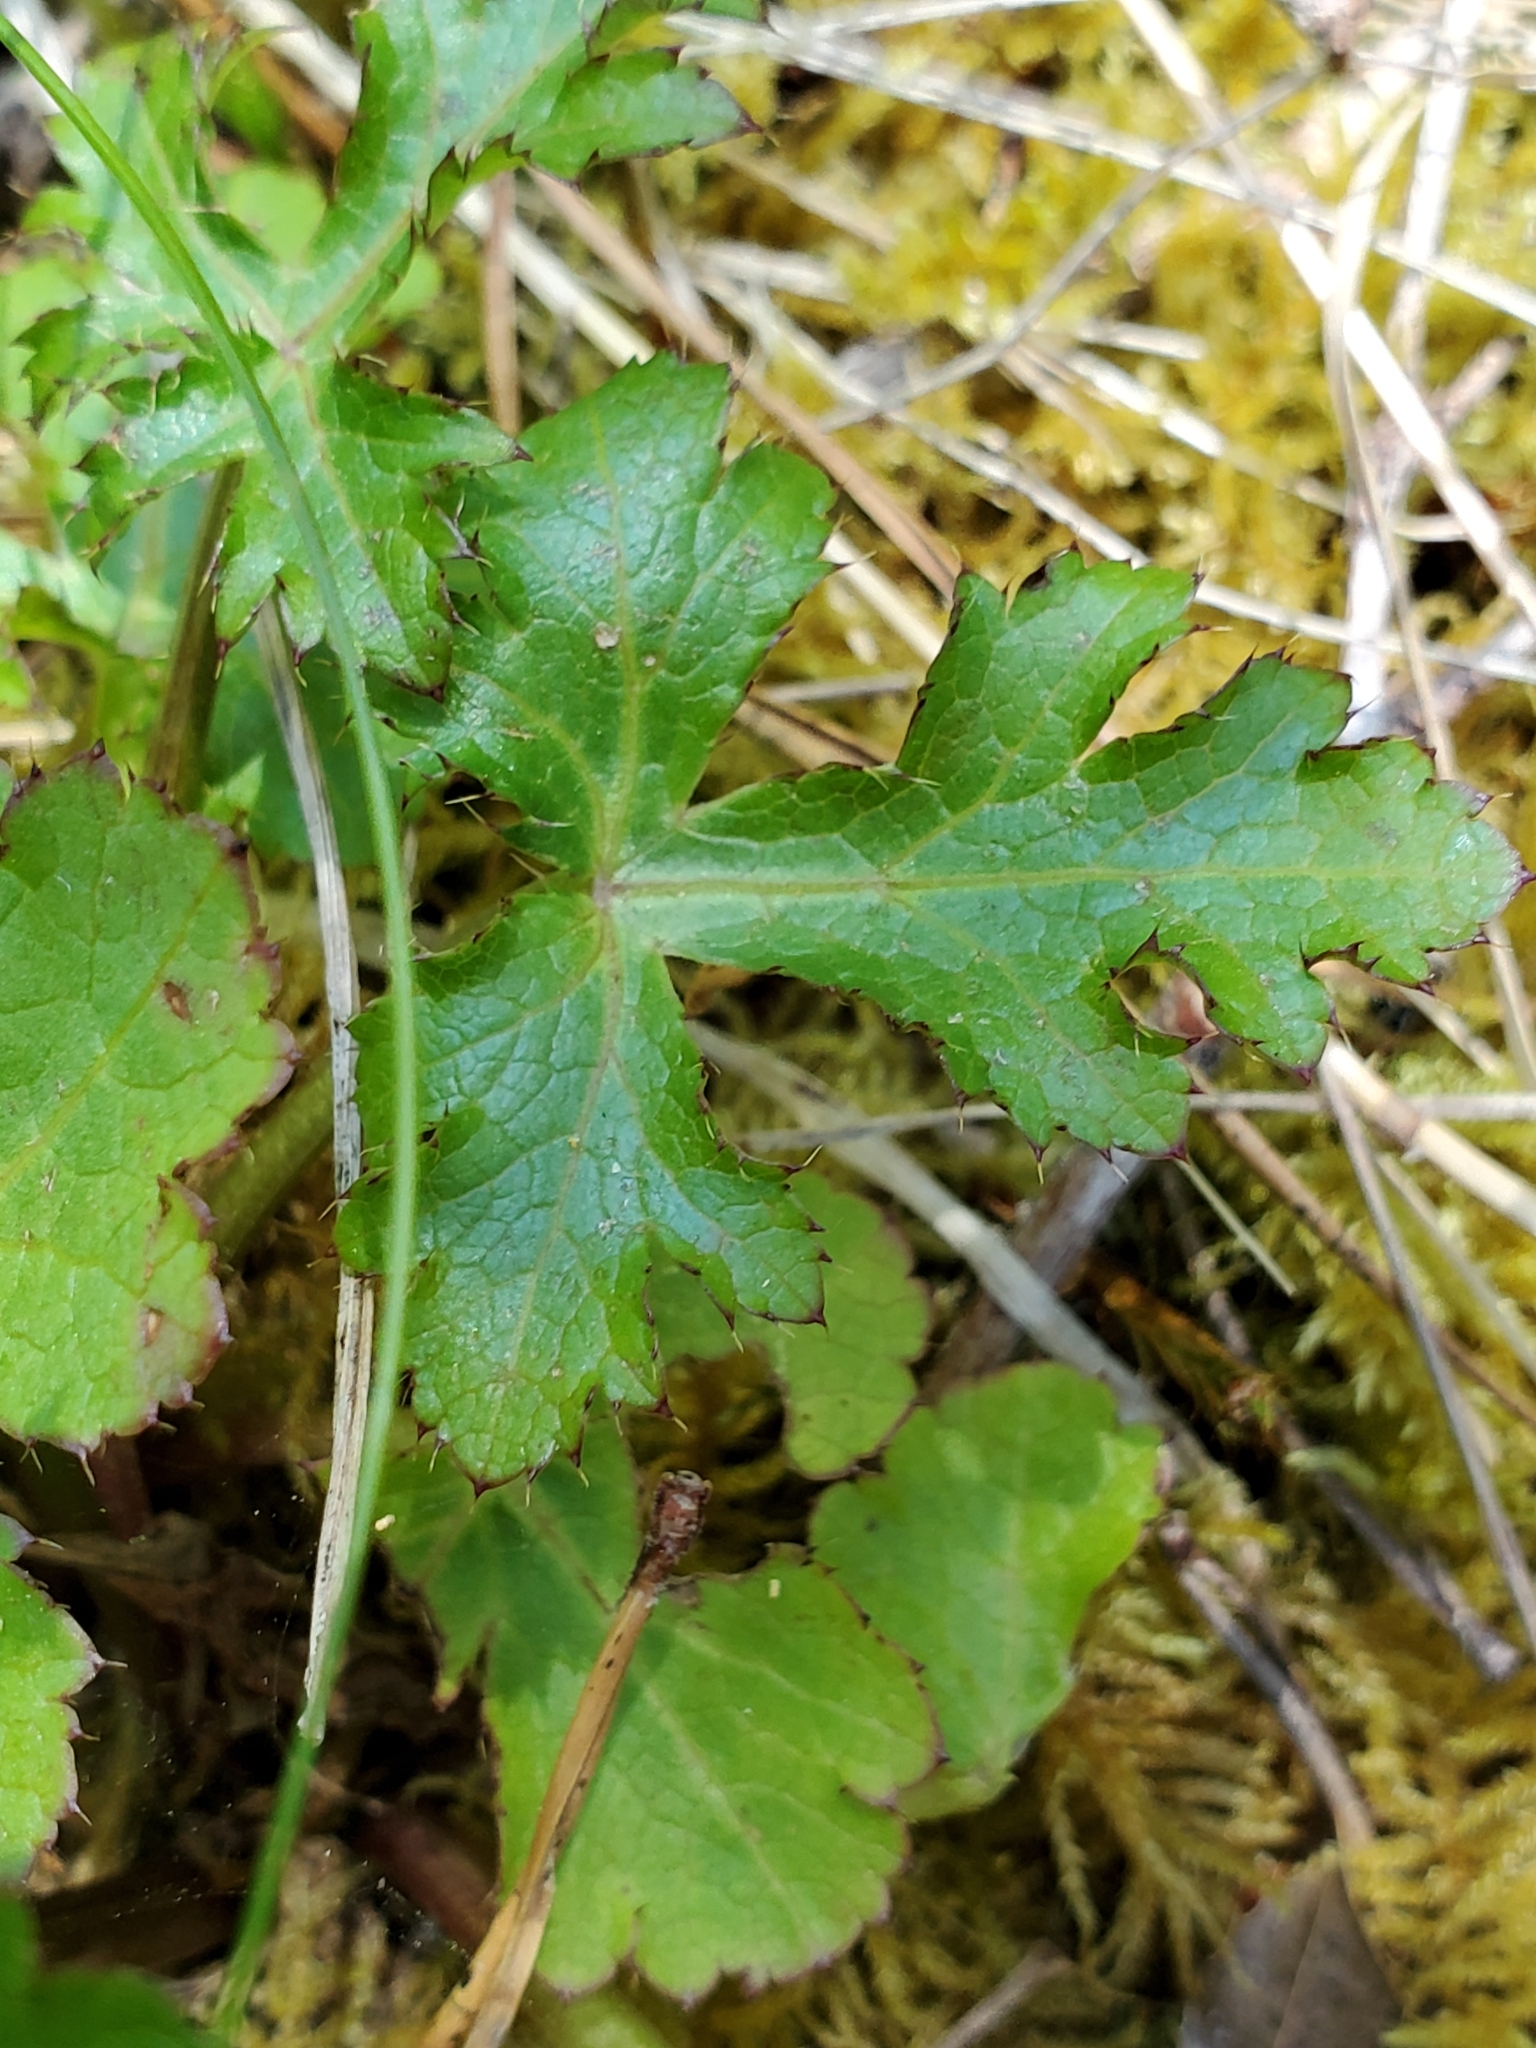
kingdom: Plantae
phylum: Tracheophyta
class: Magnoliopsida
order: Apiales
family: Apiaceae
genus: Sanicula
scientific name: Sanicula crassicaulis
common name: Western snakeroot
